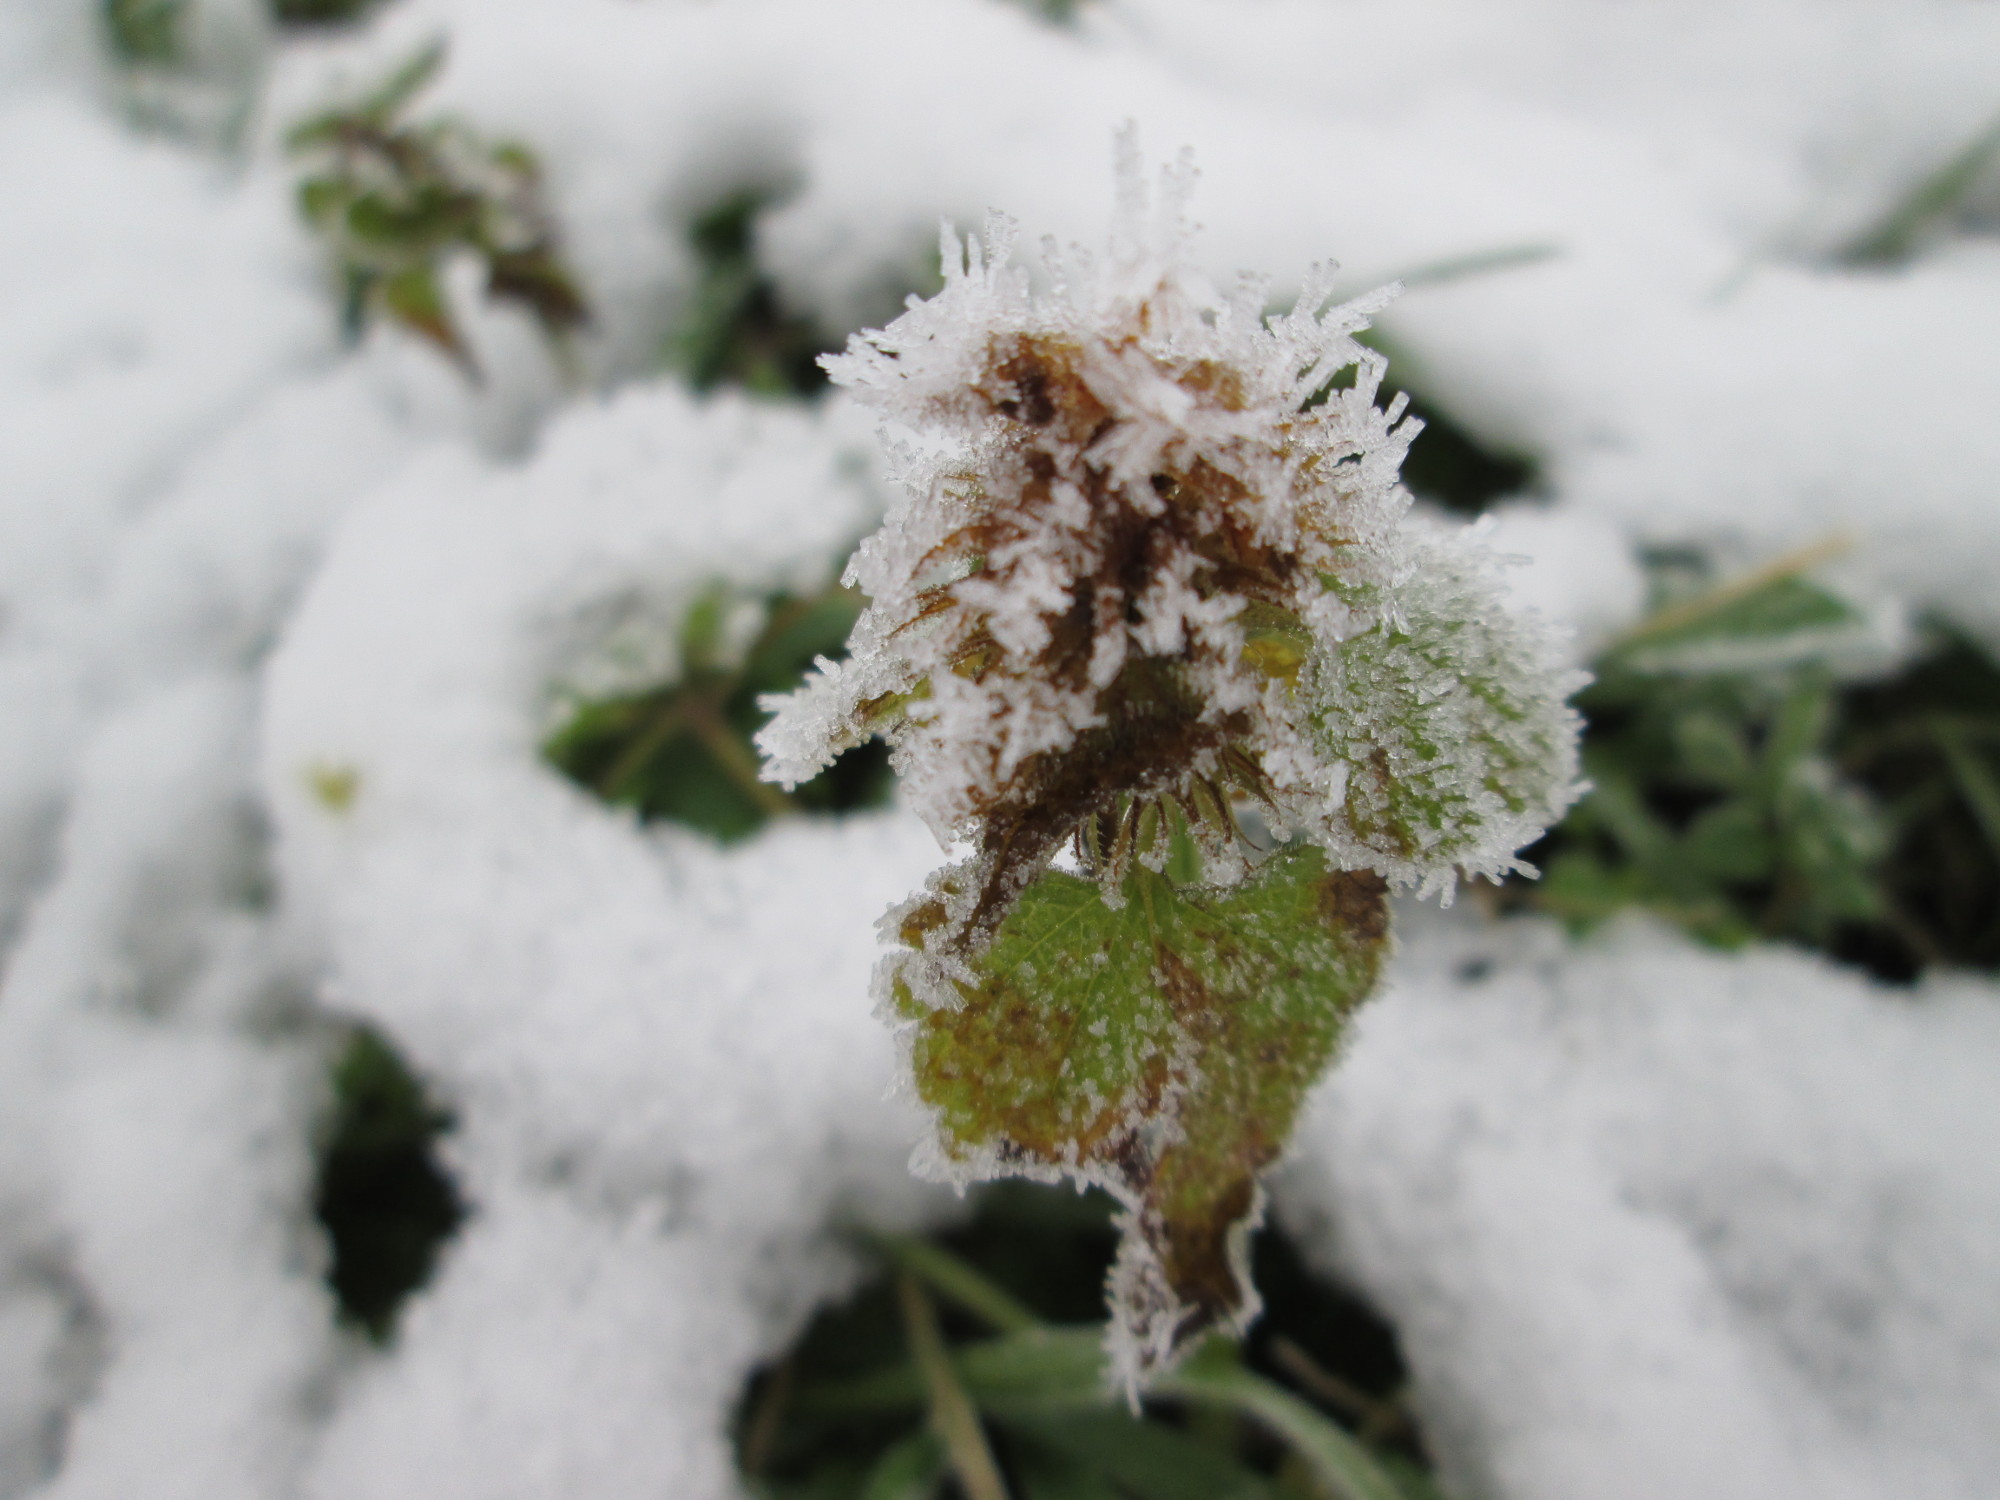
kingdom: Plantae
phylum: Tracheophyta
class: Magnoliopsida
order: Lamiales
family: Lamiaceae
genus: Lamium
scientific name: Lamium purpureum
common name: Red dead-nettle
